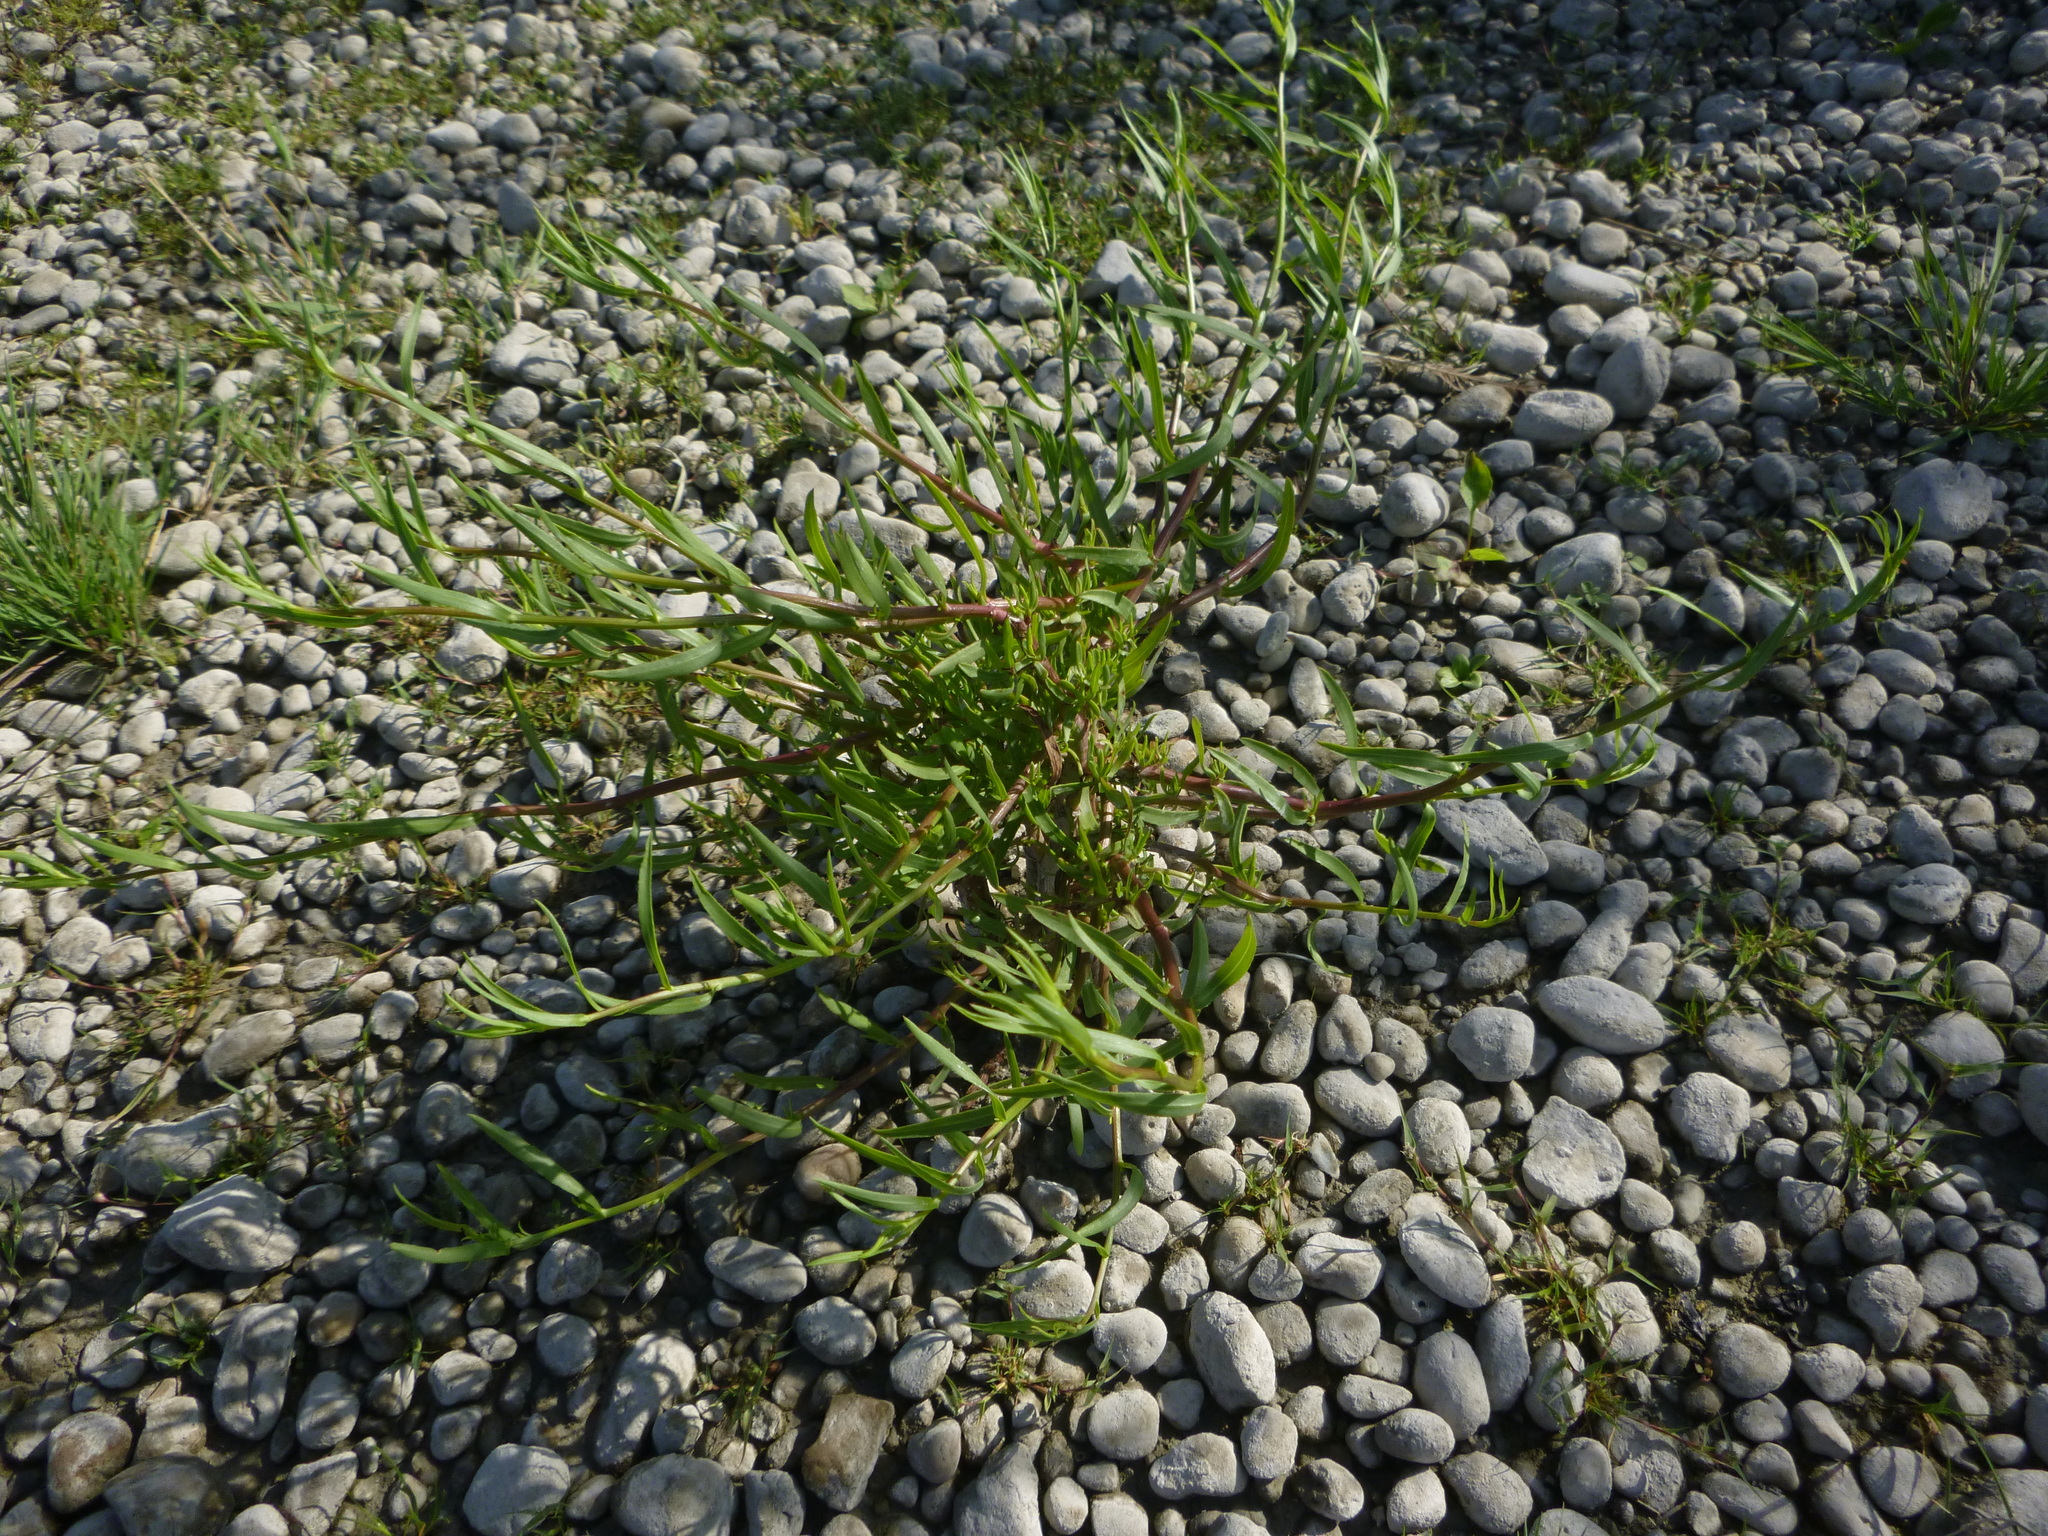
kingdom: Plantae
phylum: Tracheophyta
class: Magnoliopsida
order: Asterales
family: Asteraceae
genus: Tripolium
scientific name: Tripolium pannonicum
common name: Sea aster
